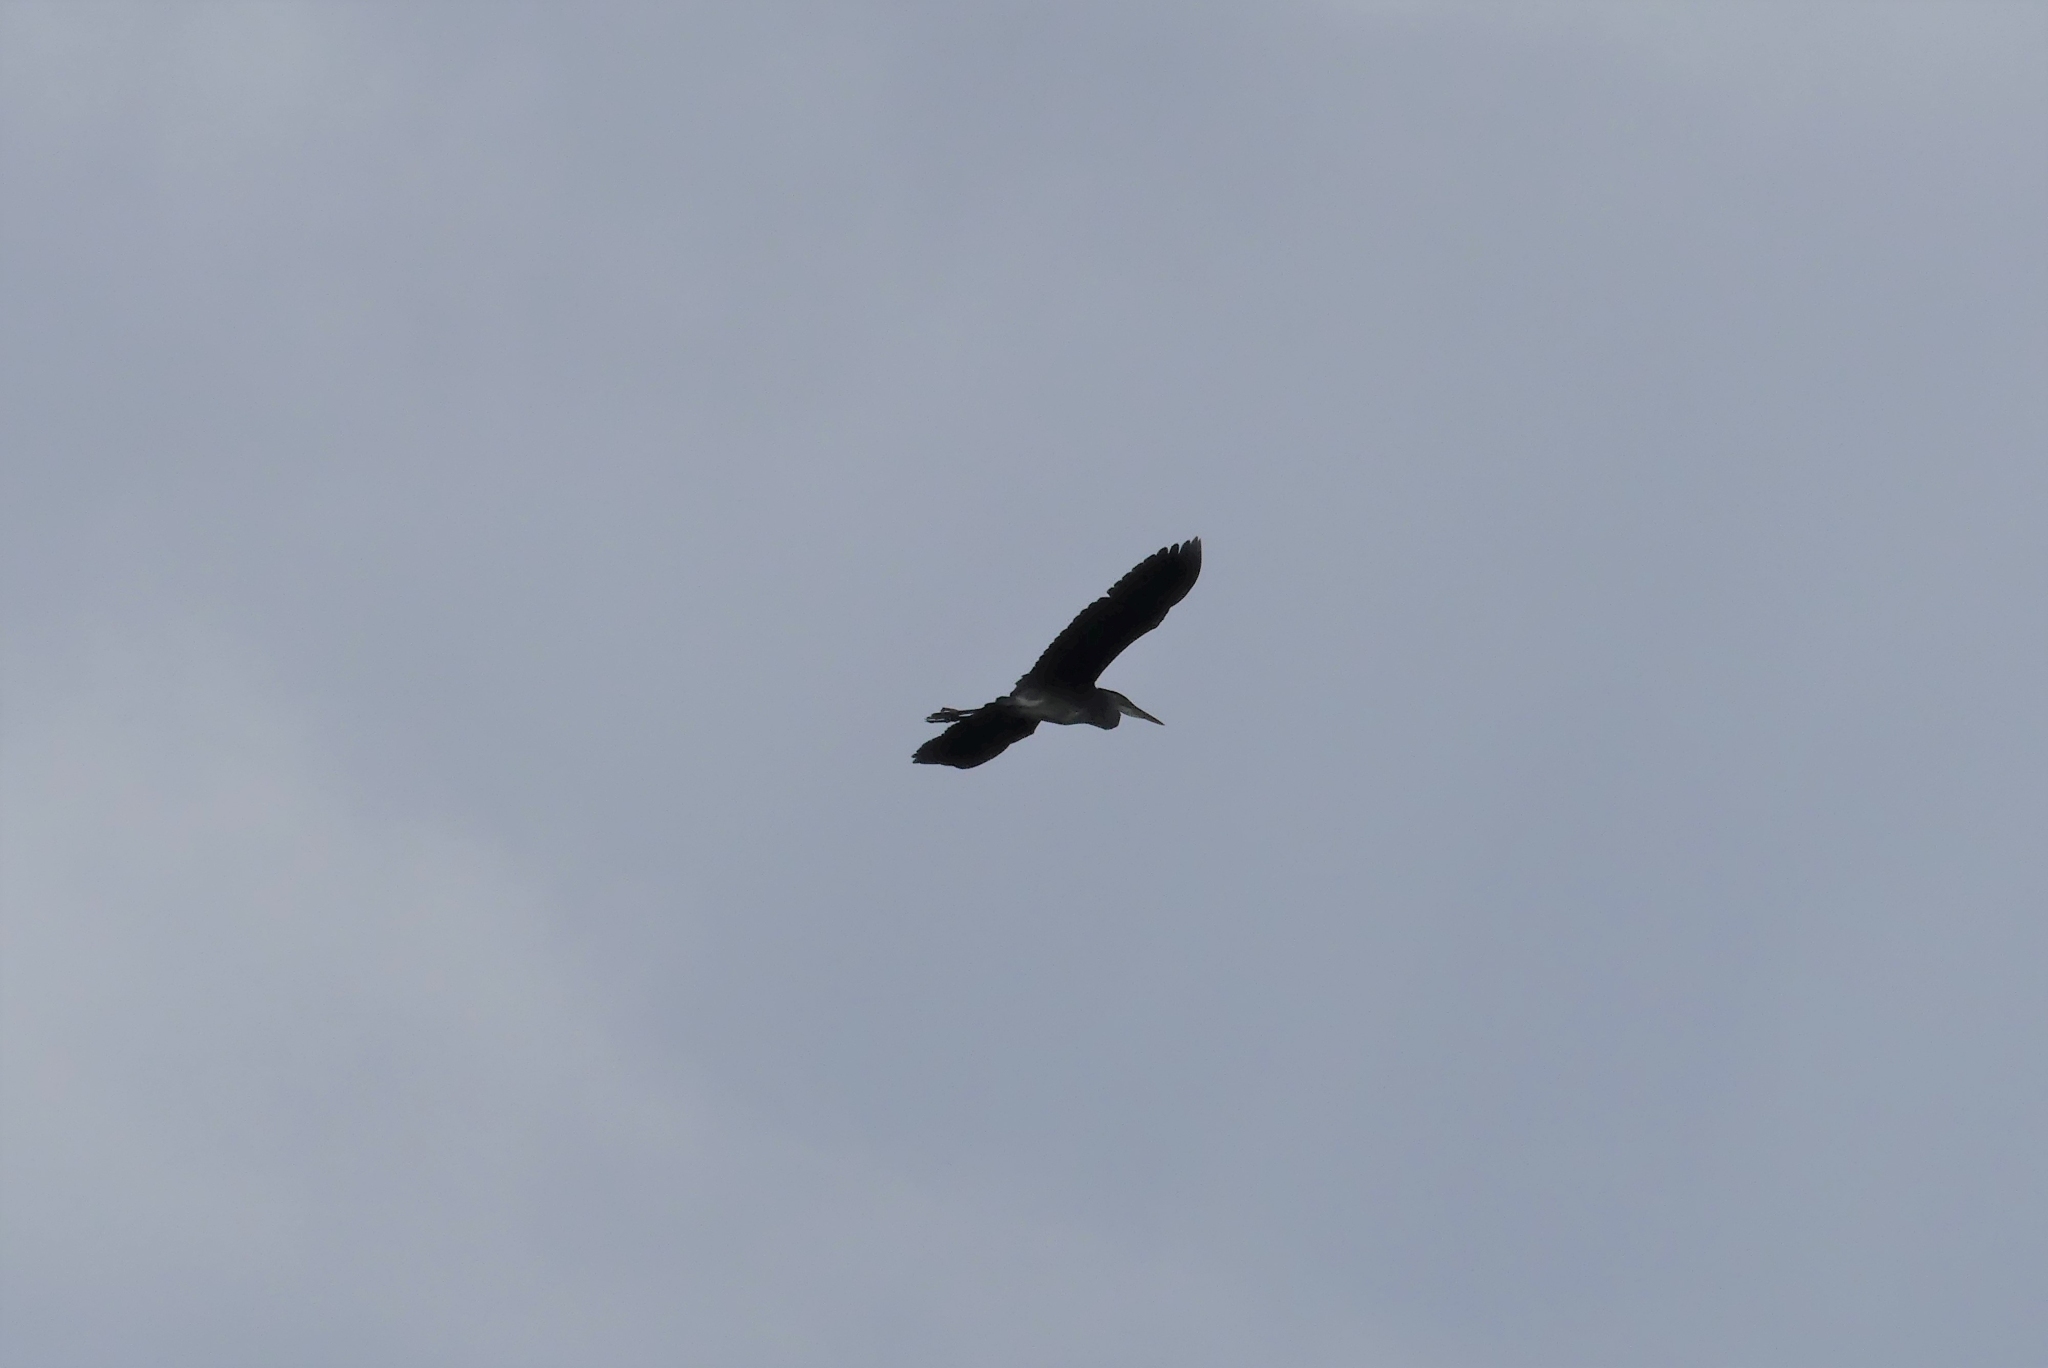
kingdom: Animalia
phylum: Chordata
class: Aves
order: Pelecaniformes
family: Ardeidae
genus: Ardea
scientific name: Ardea herodias
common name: Great blue heron
